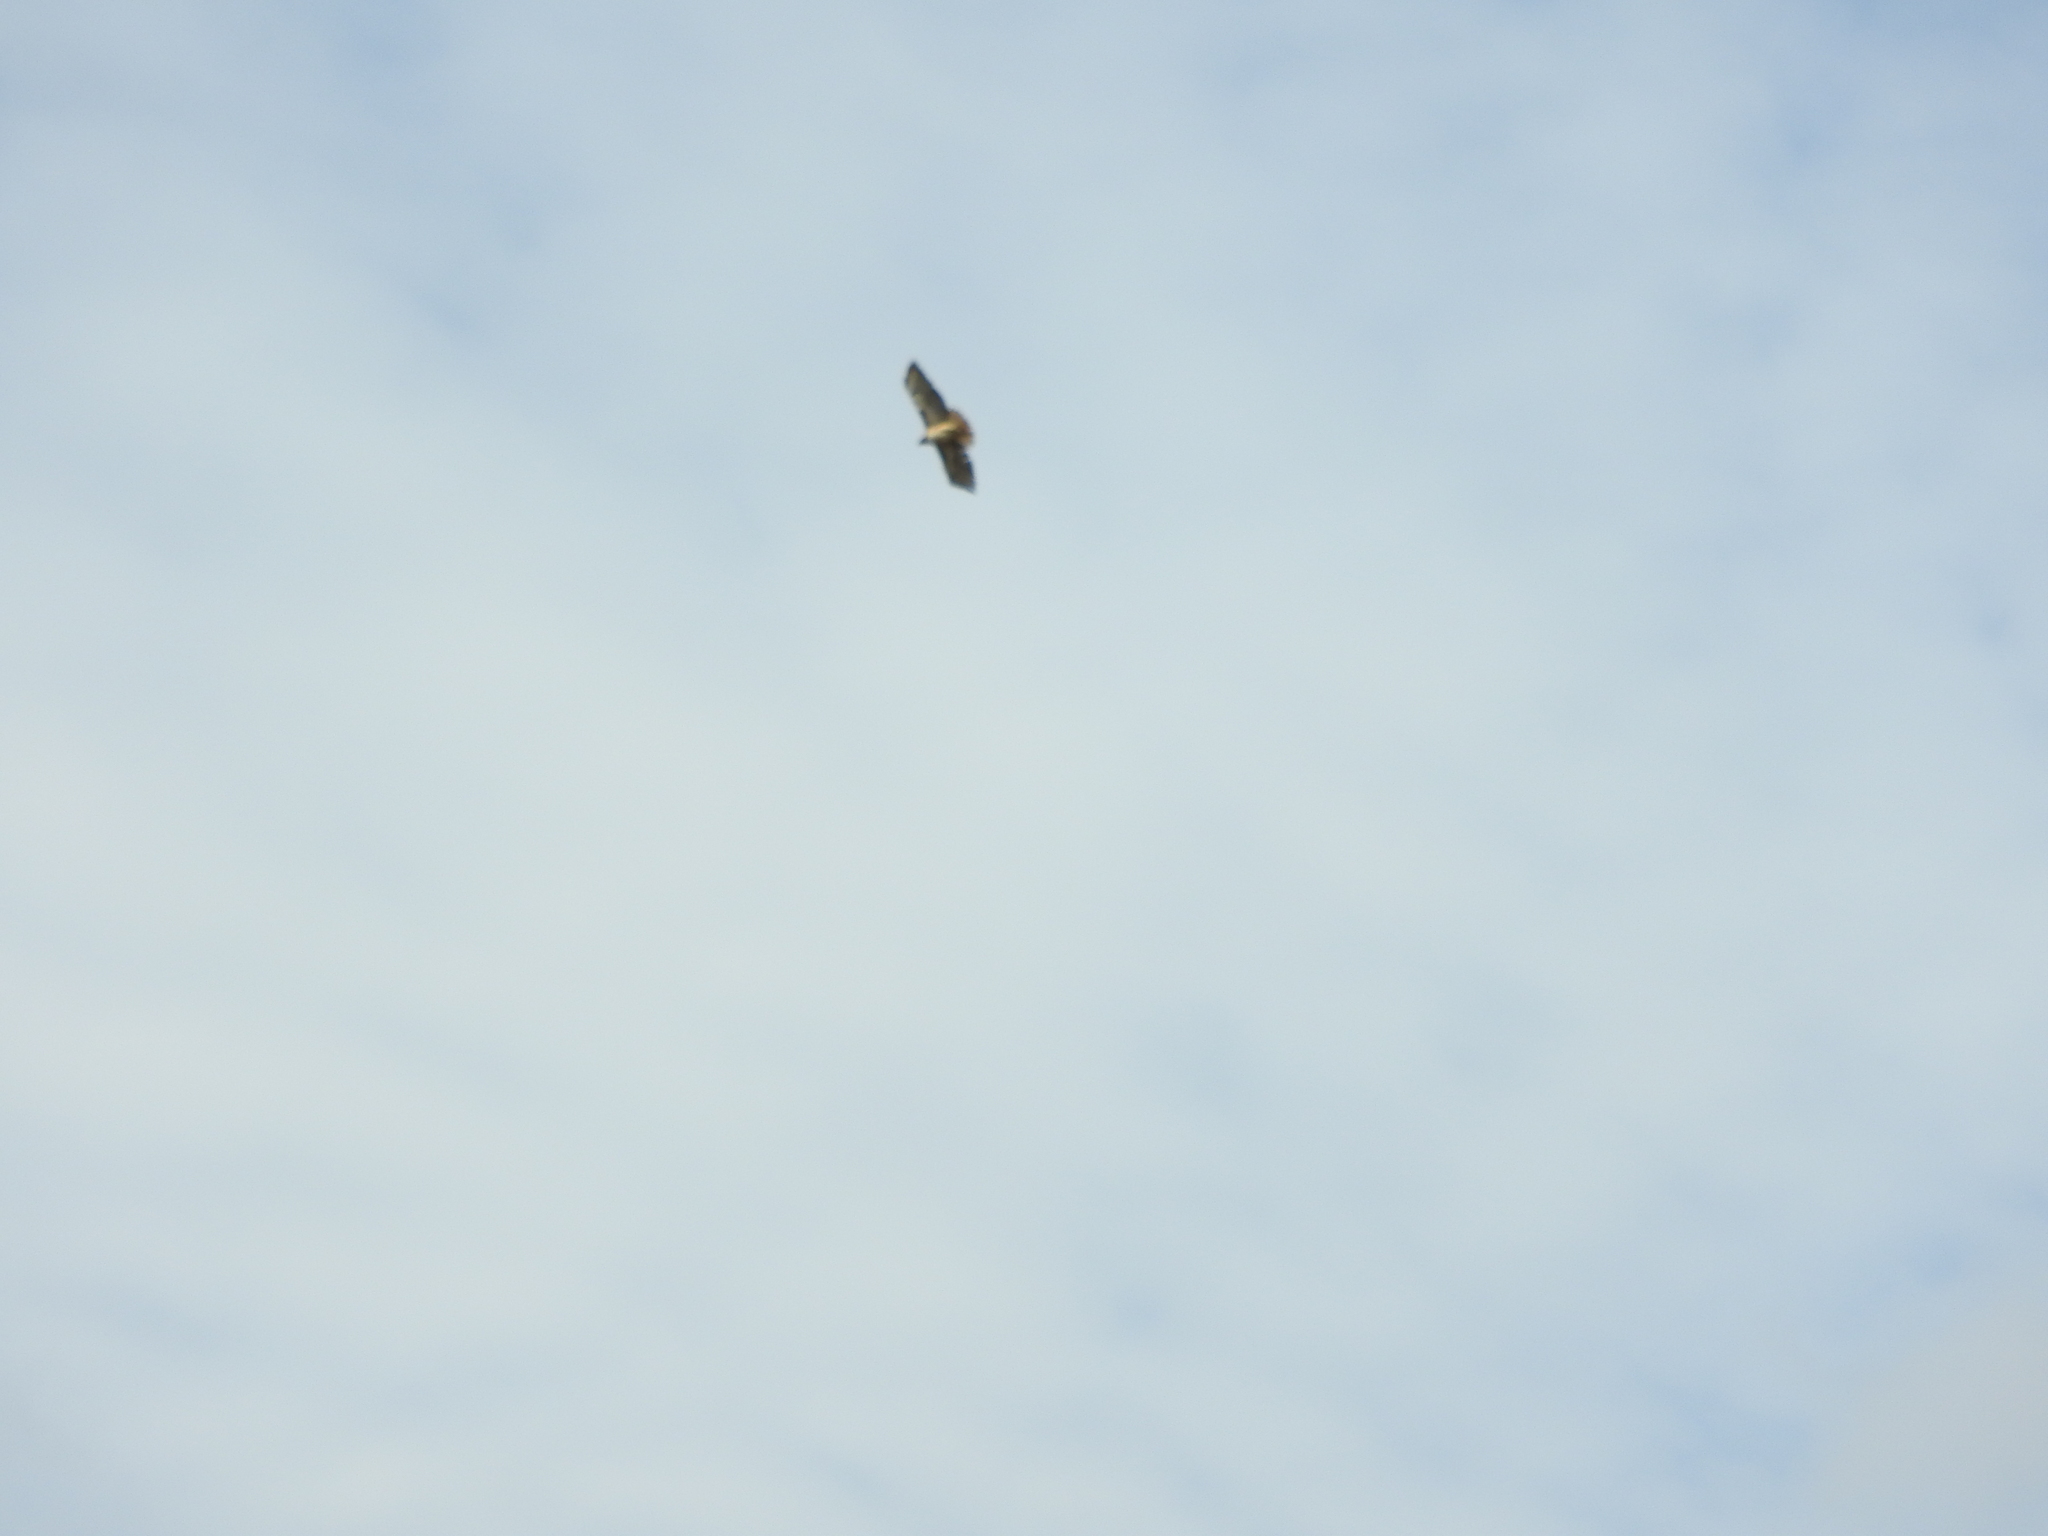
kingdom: Animalia
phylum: Chordata
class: Aves
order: Accipitriformes
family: Accipitridae
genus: Buteo
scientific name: Buteo jamaicensis
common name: Red-tailed hawk
